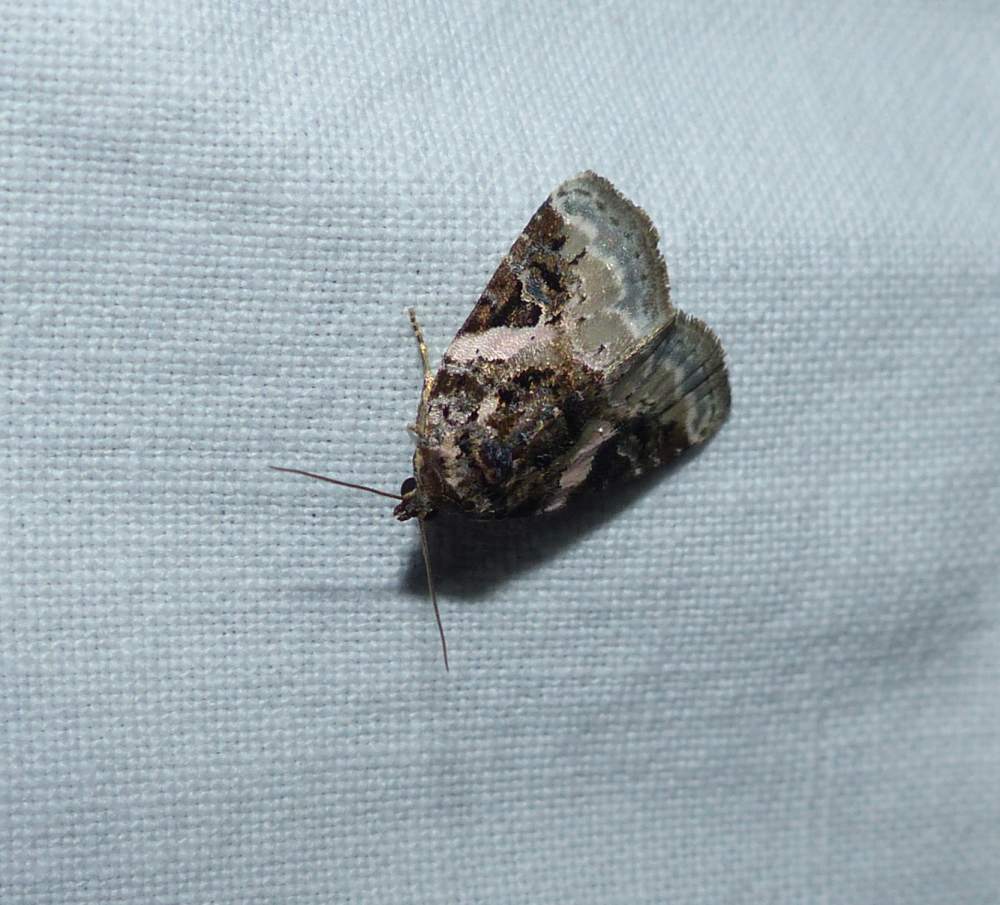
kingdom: Animalia
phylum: Arthropoda
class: Insecta
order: Lepidoptera
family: Noctuidae
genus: Pseudeustrotia
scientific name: Pseudeustrotia carneola
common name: Pink-barred lithacodia moth
